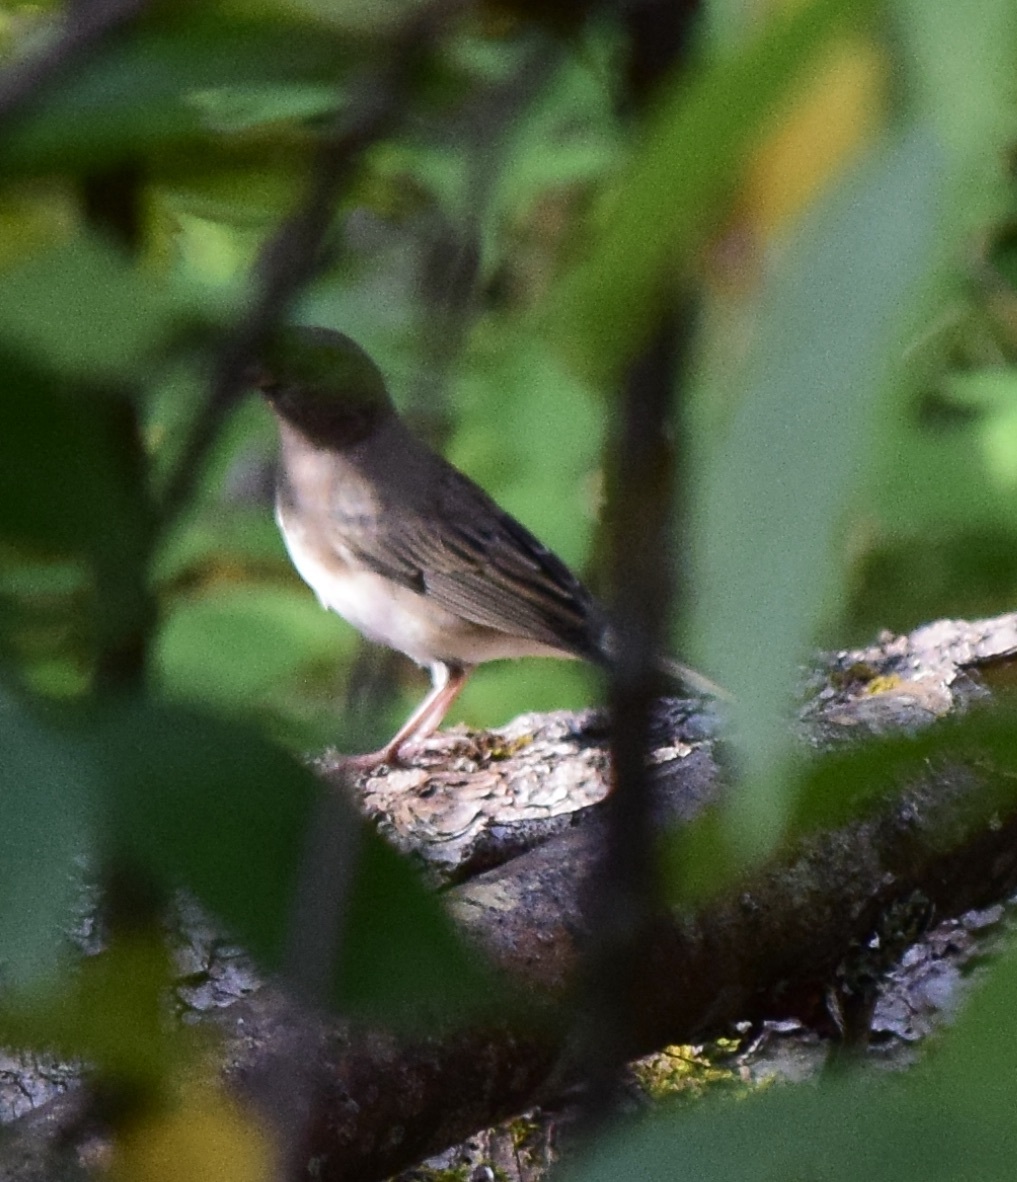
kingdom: Animalia
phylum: Chordata
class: Aves
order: Passeriformes
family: Passerellidae
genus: Junco
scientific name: Junco hyemalis
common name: Dark-eyed junco
